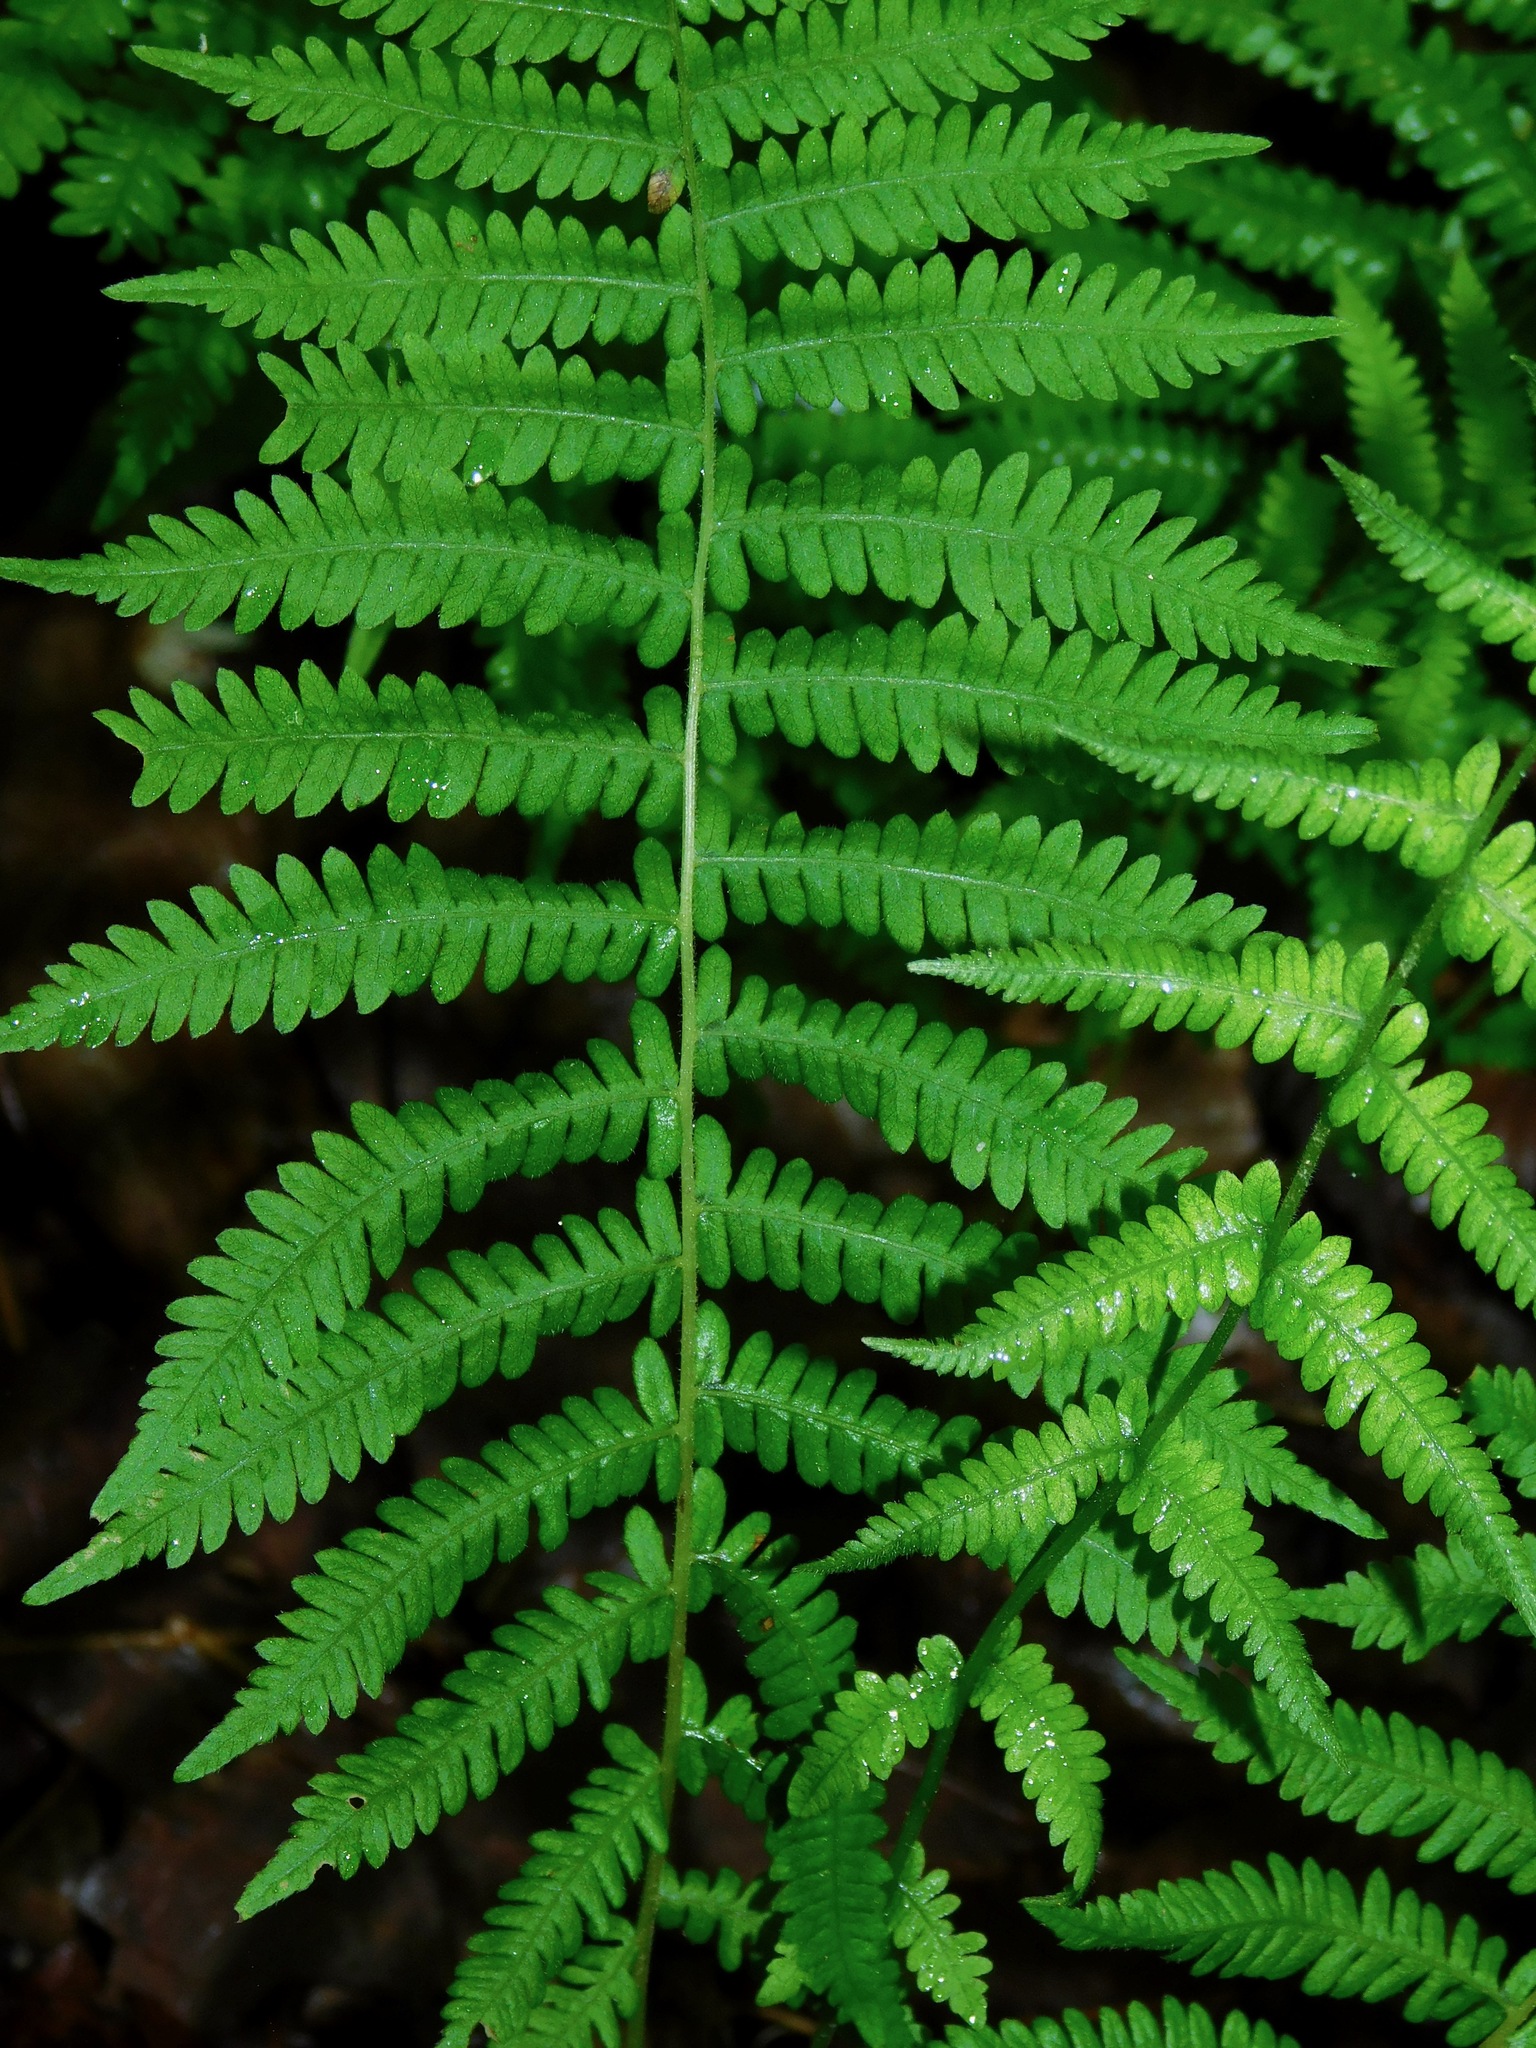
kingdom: Plantae
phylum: Tracheophyta
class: Polypodiopsida
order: Polypodiales
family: Thelypteridaceae
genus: Amauropelta
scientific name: Amauropelta noveboracensis
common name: New york fern
